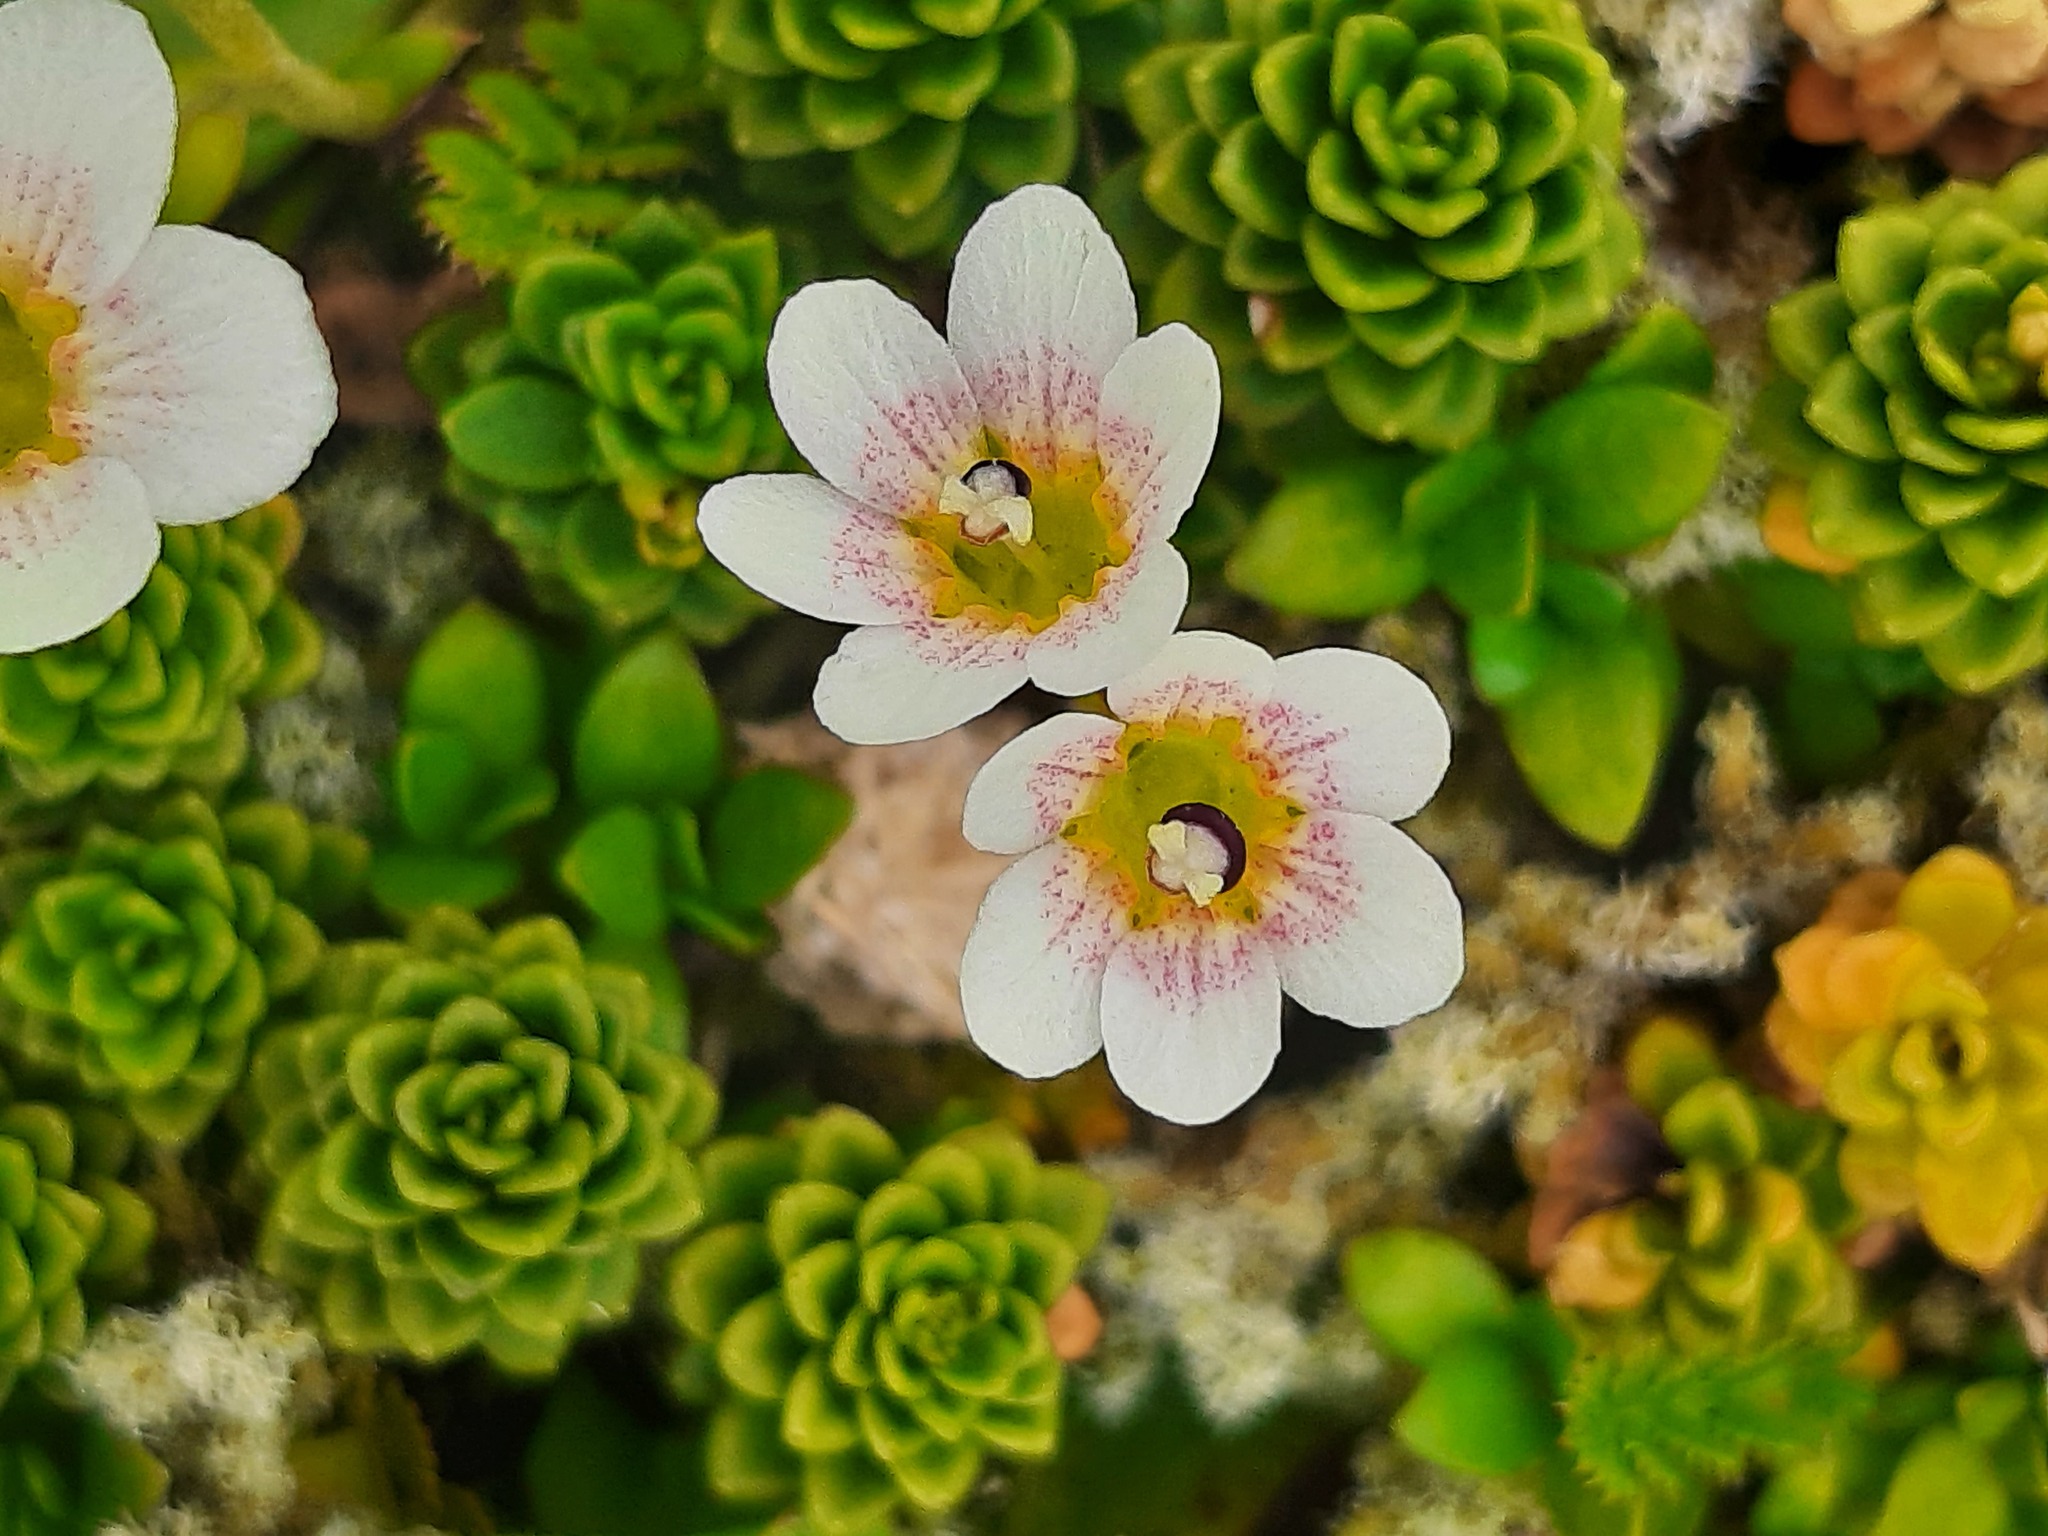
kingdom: Plantae
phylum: Tracheophyta
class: Magnoliopsida
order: Asterales
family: Stylidiaceae
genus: Forstera
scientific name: Forstera tenella
